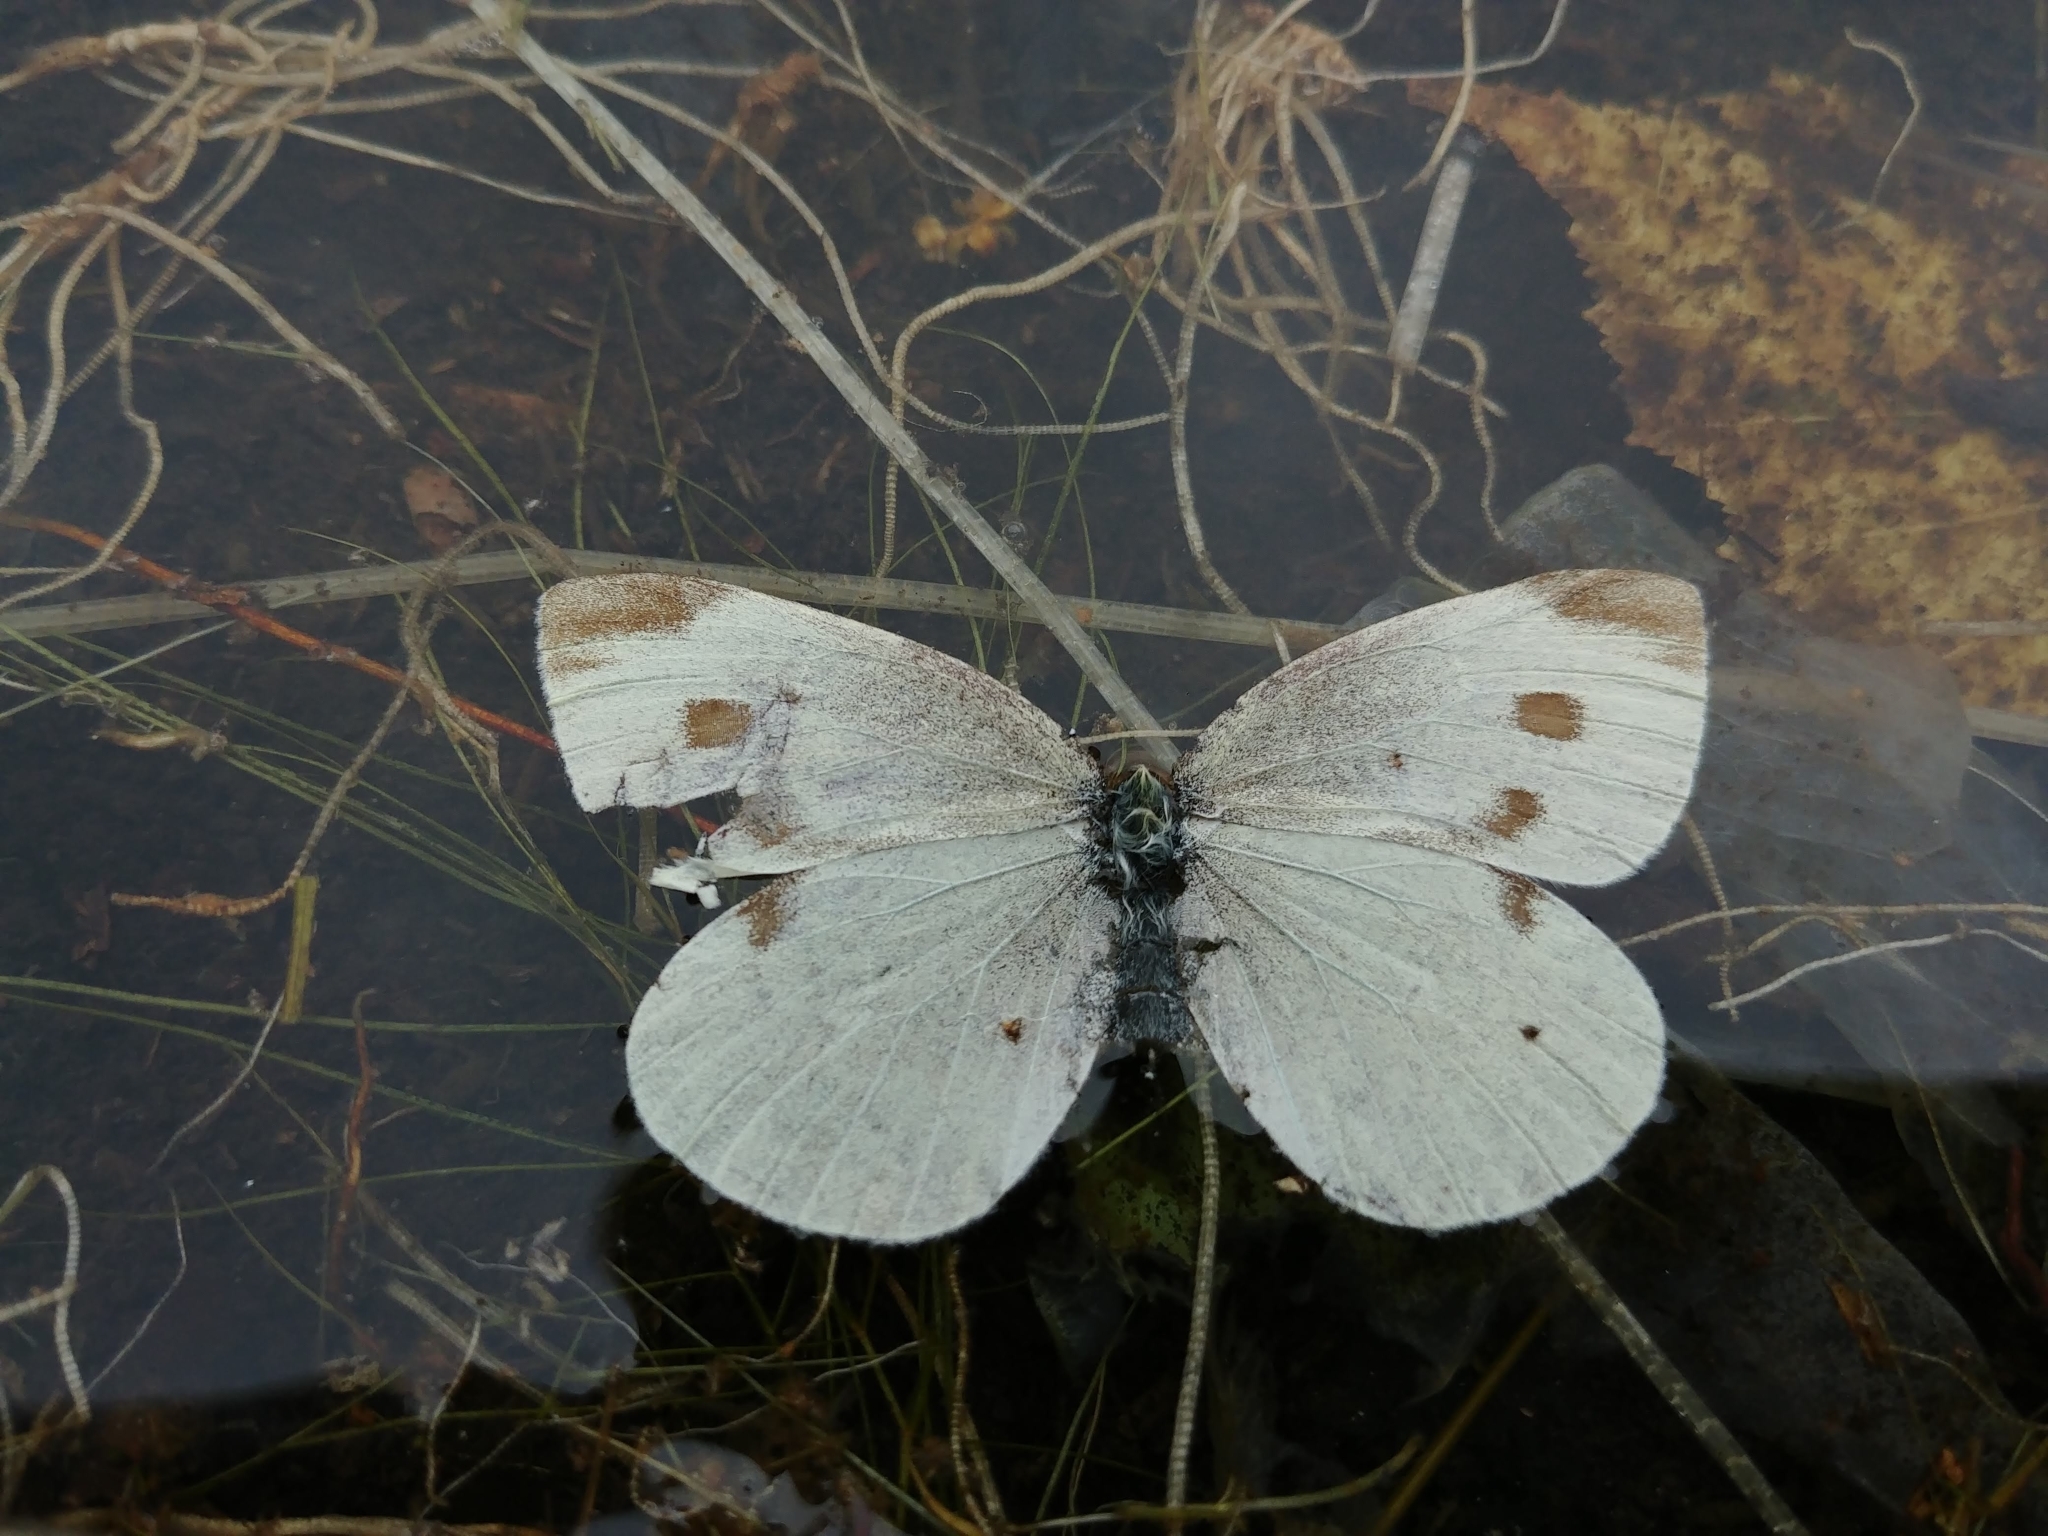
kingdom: Animalia
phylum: Arthropoda
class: Insecta
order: Lepidoptera
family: Pieridae
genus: Pieris
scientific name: Pieris rapae
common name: Small white
